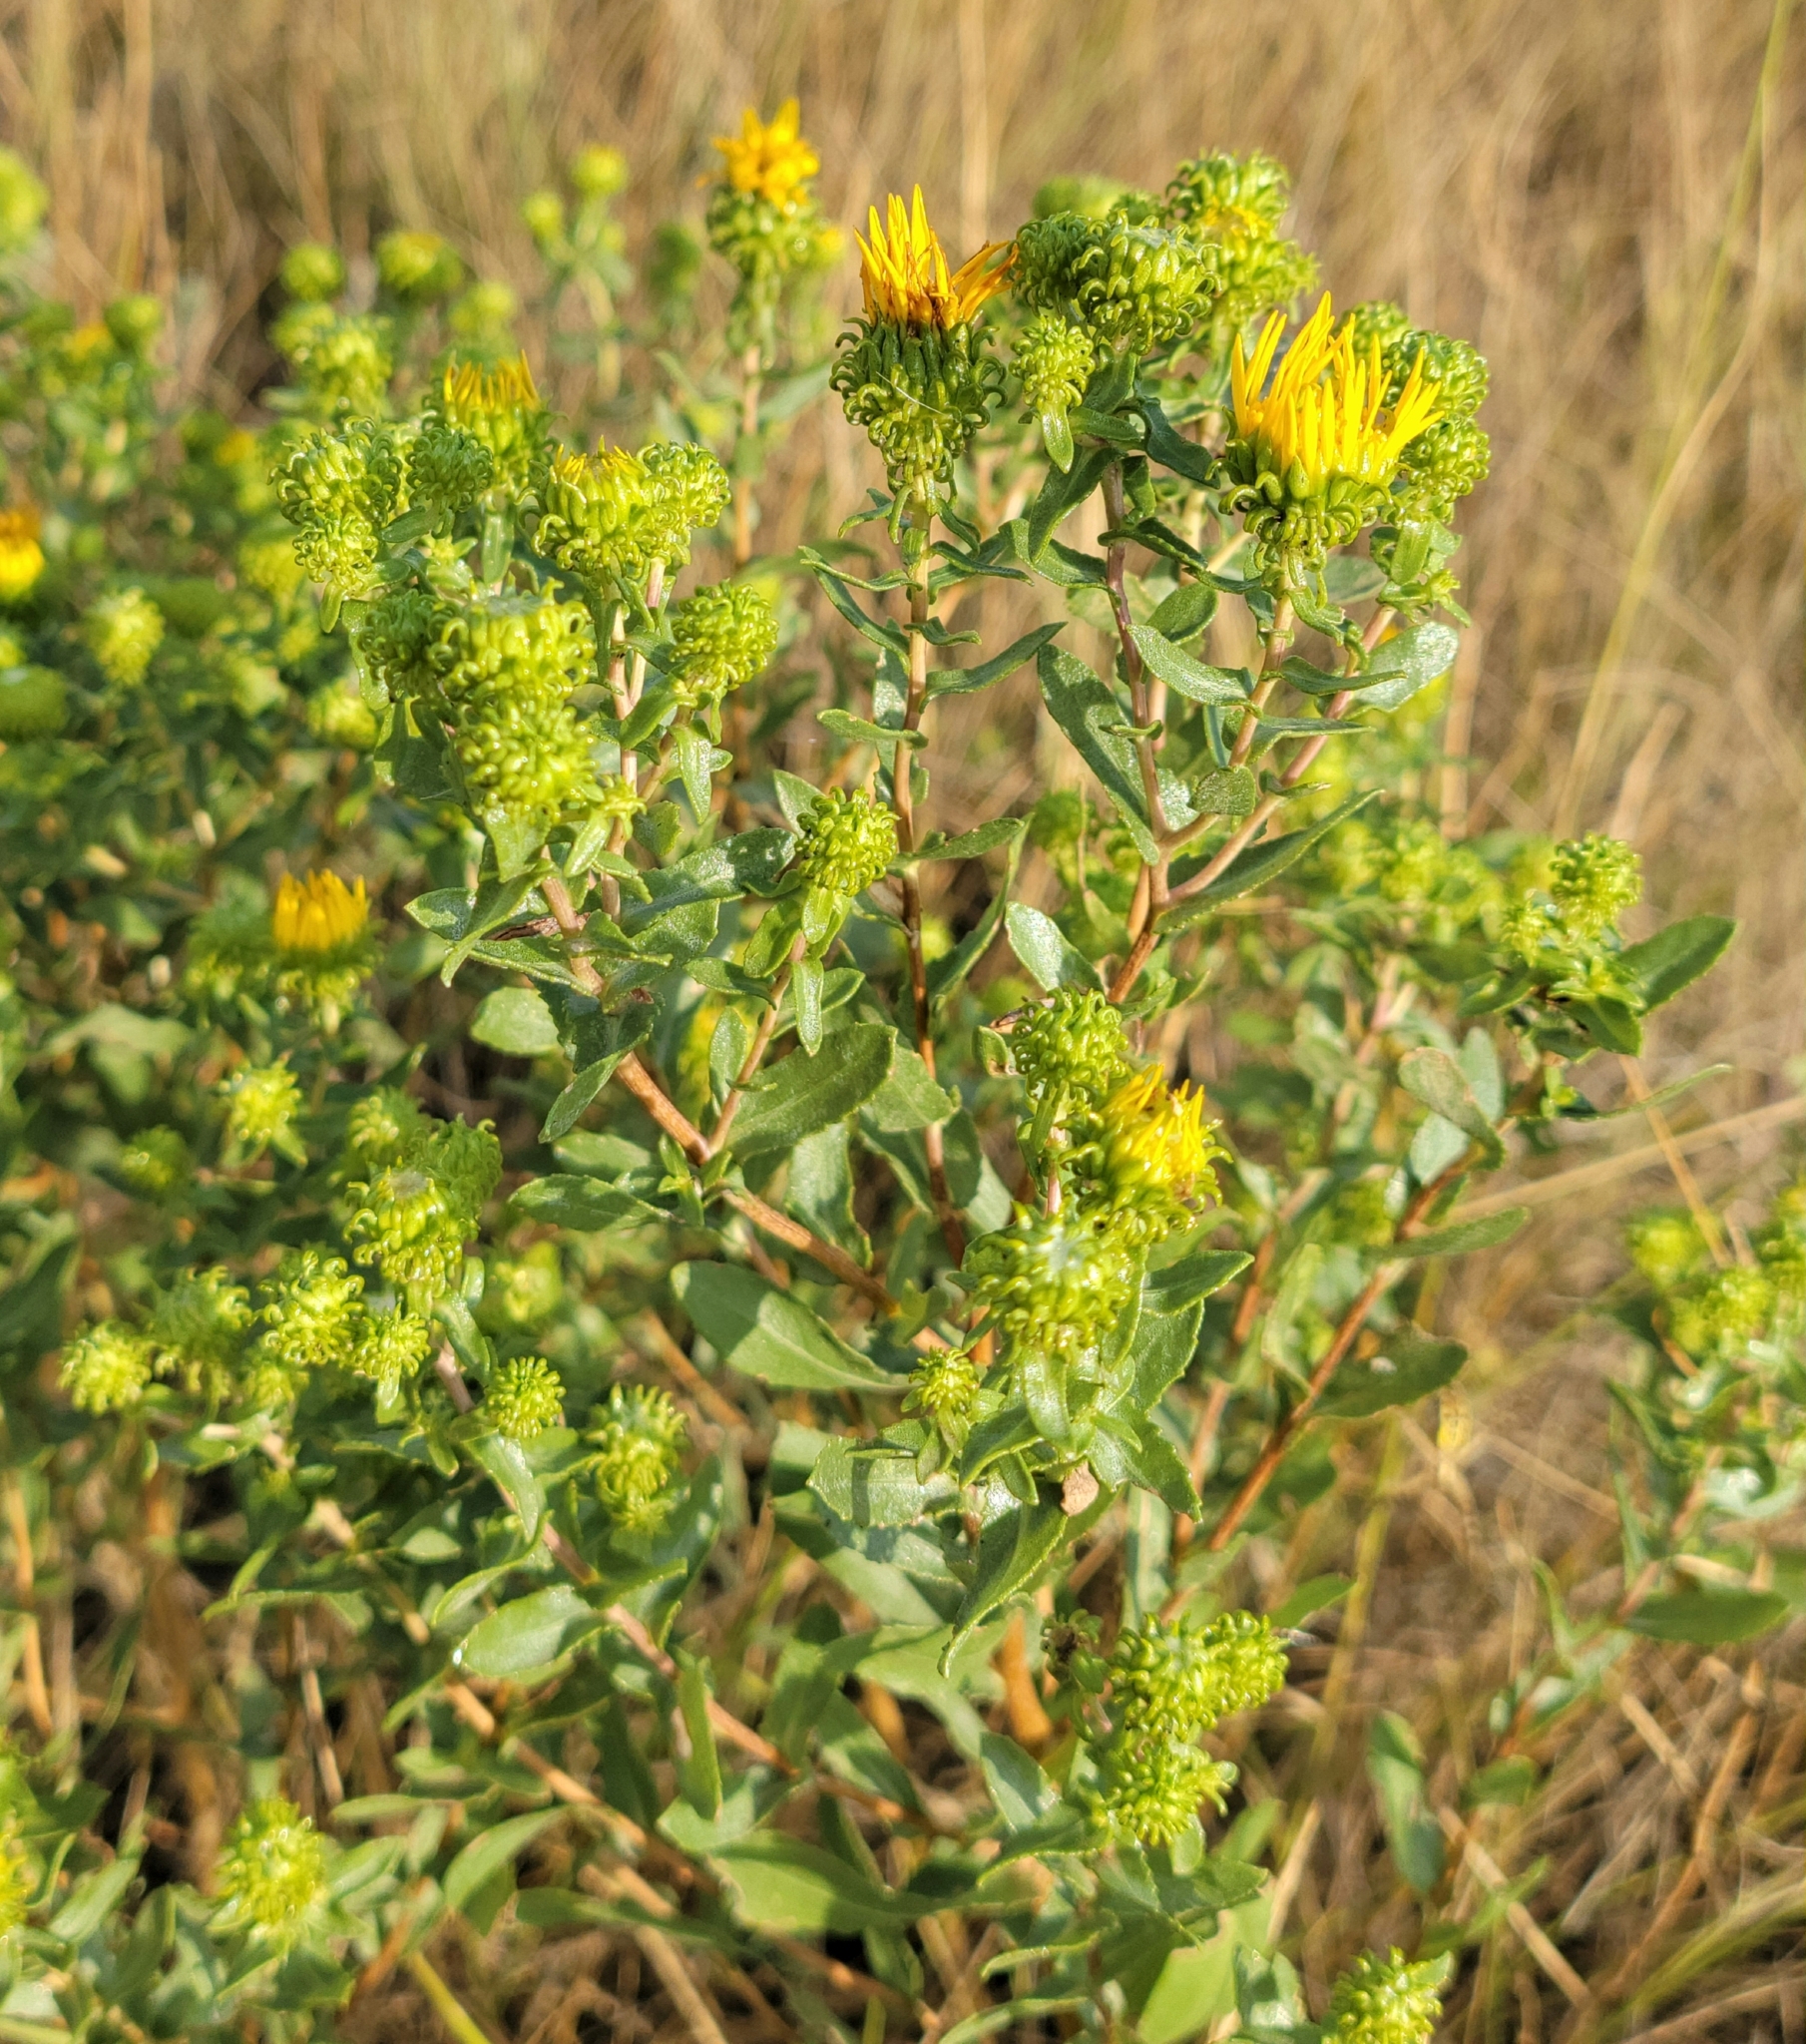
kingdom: Plantae
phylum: Tracheophyta
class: Magnoliopsida
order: Asterales
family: Asteraceae
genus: Grindelia
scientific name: Grindelia squarrosa
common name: Curly-cup gumweed
